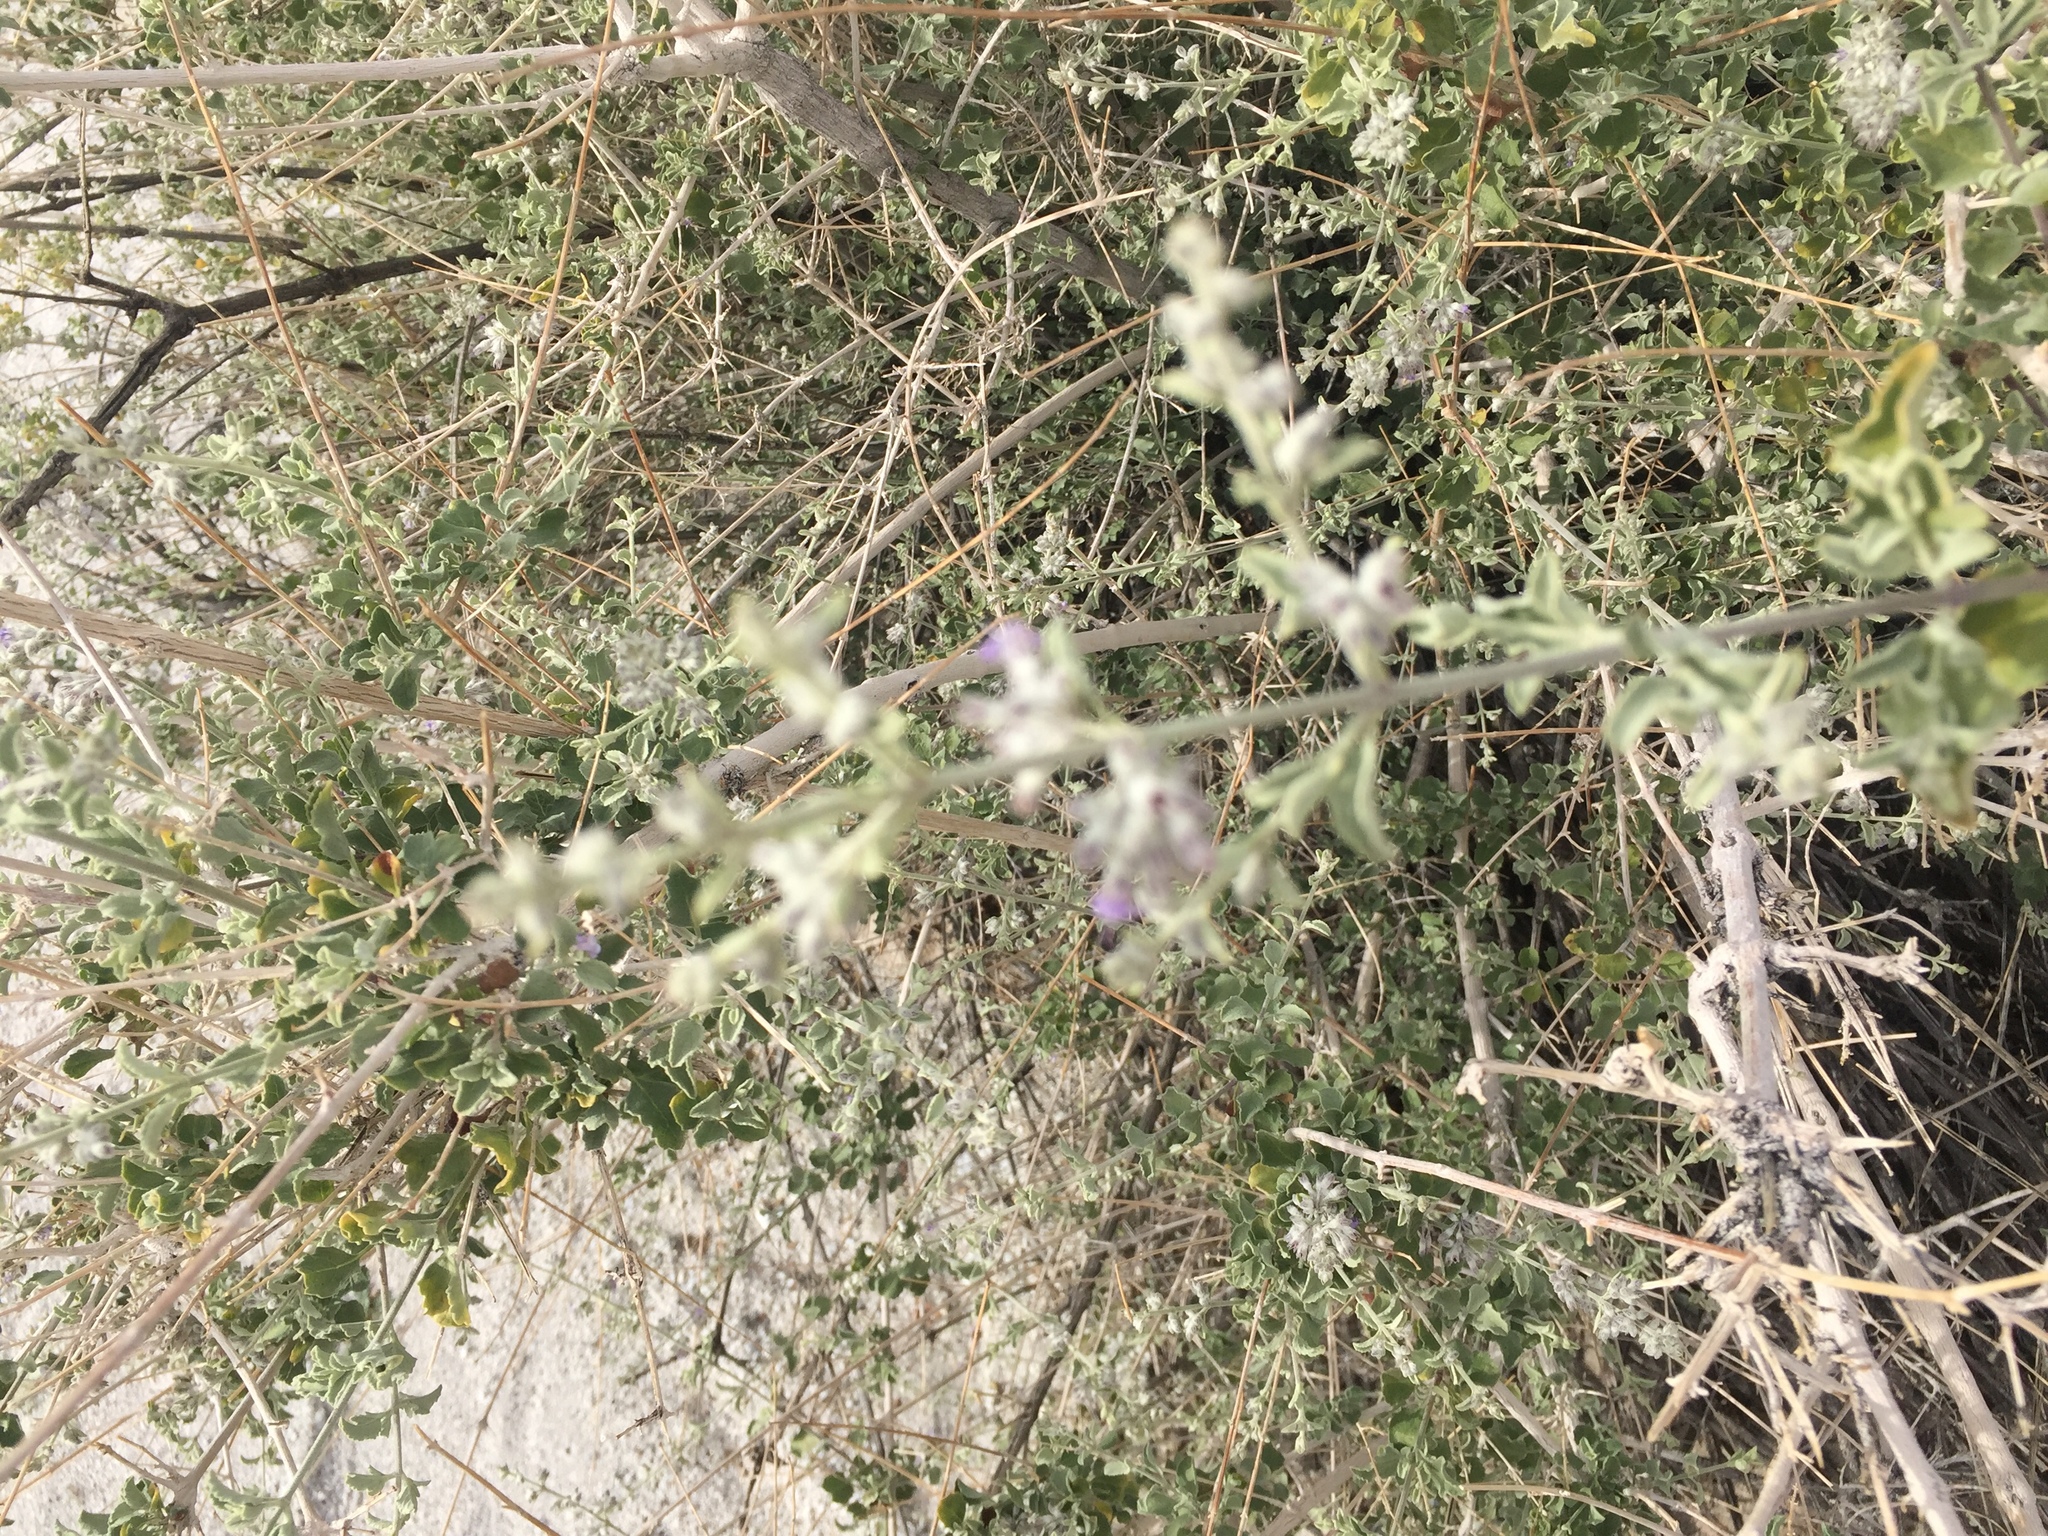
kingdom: Plantae
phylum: Tracheophyta
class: Magnoliopsida
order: Lamiales
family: Lamiaceae
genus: Condea
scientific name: Condea emoryi
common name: Chia
